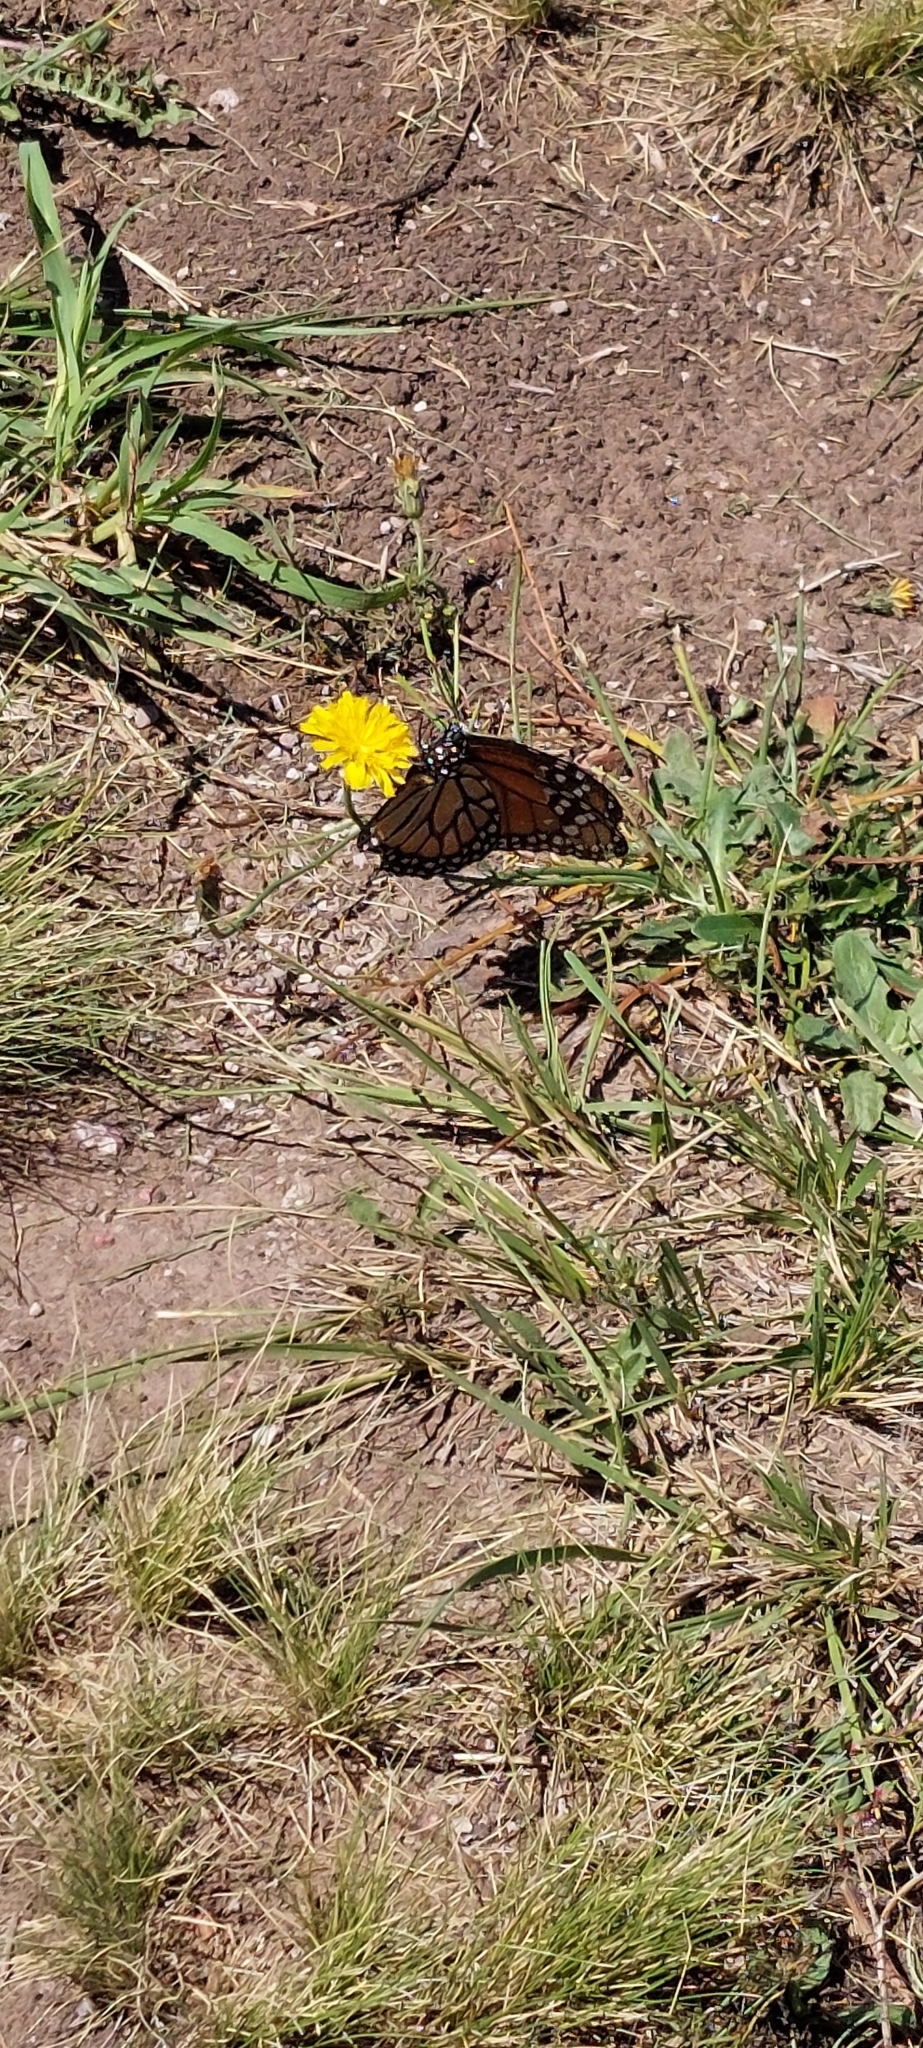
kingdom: Animalia
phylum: Arthropoda
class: Insecta
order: Lepidoptera
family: Nymphalidae
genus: Danaus
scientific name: Danaus erippus
